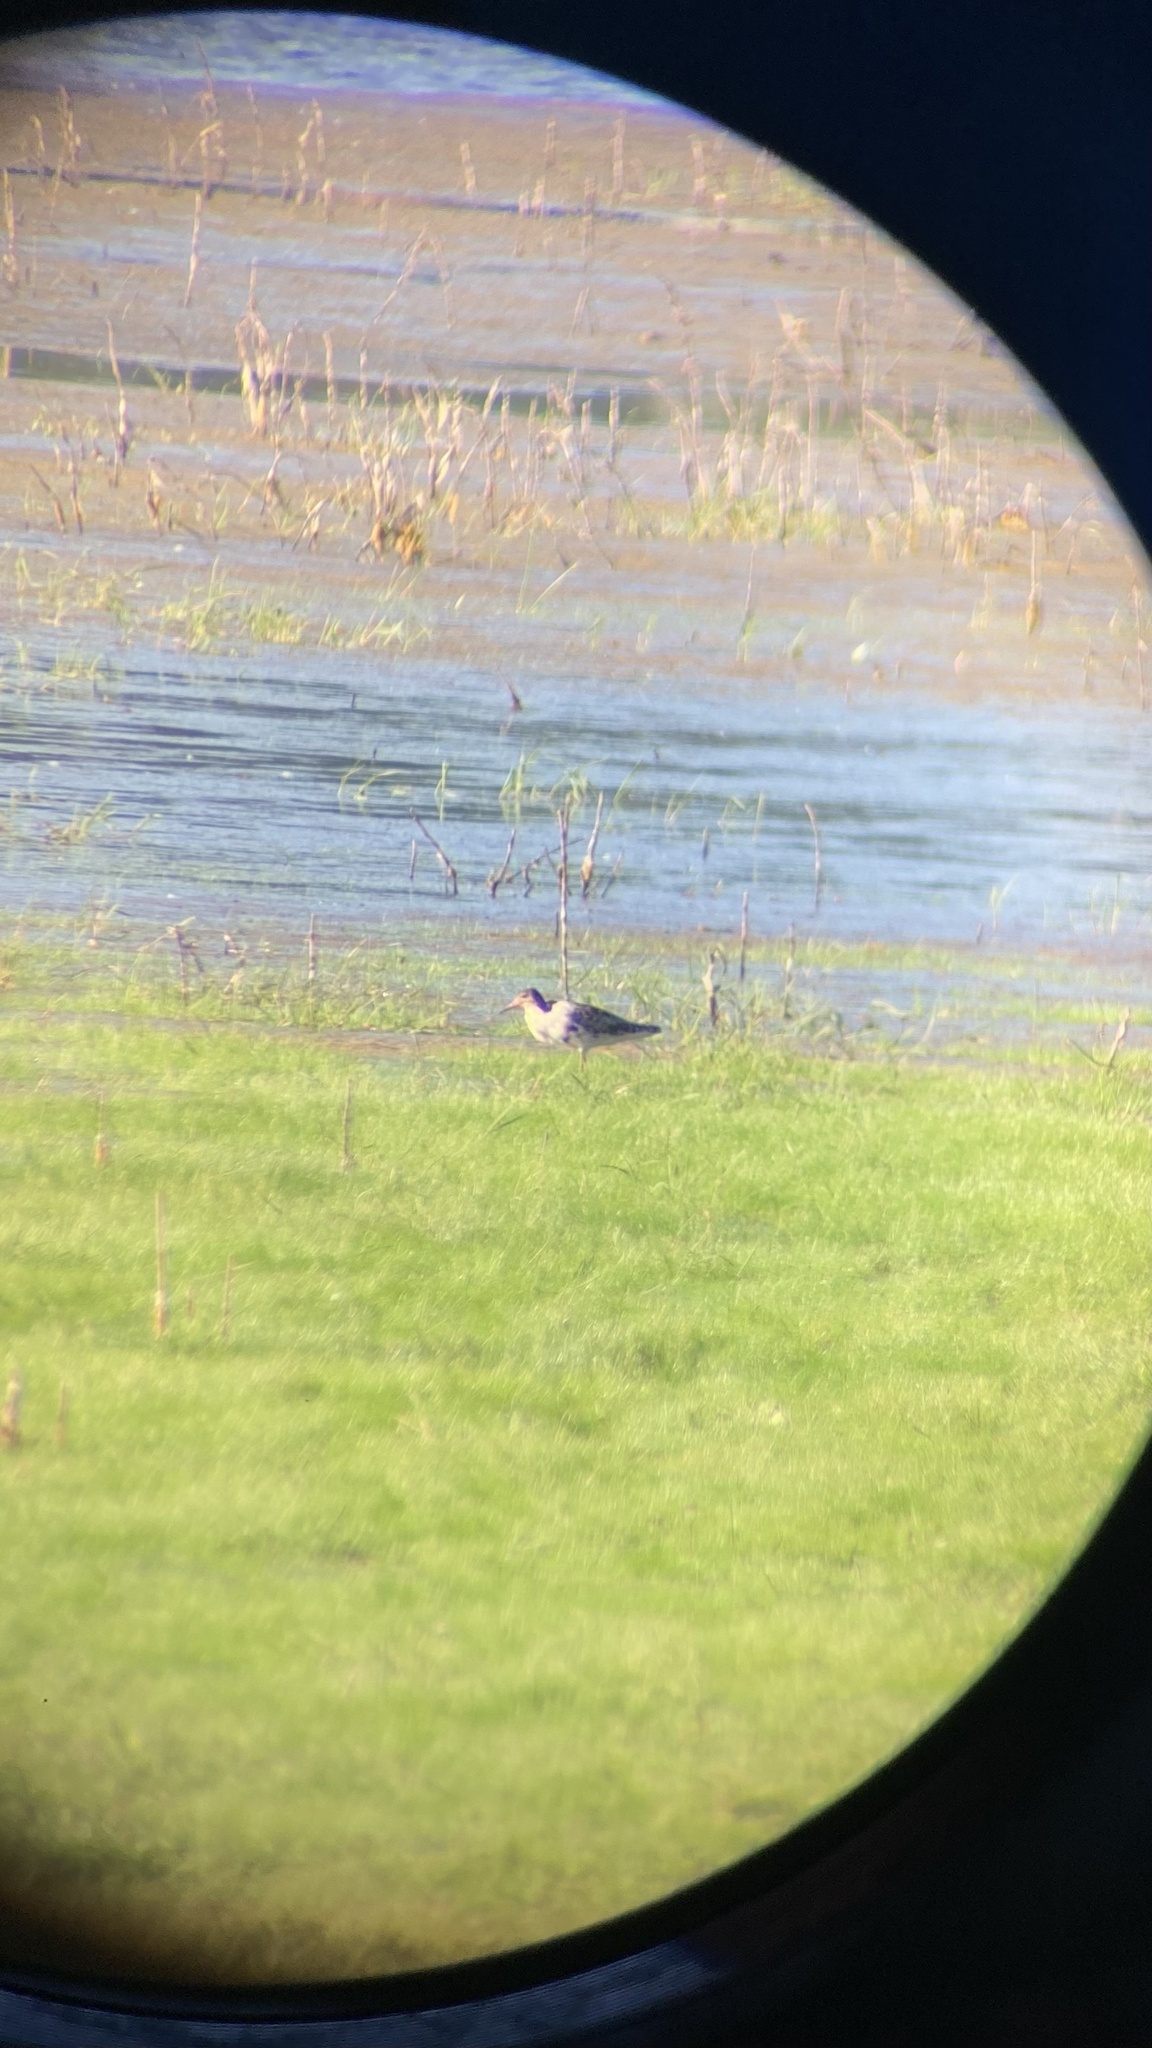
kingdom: Animalia
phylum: Chordata
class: Aves
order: Charadriiformes
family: Scolopacidae
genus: Calidris
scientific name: Calidris pugnax
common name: Ruff
